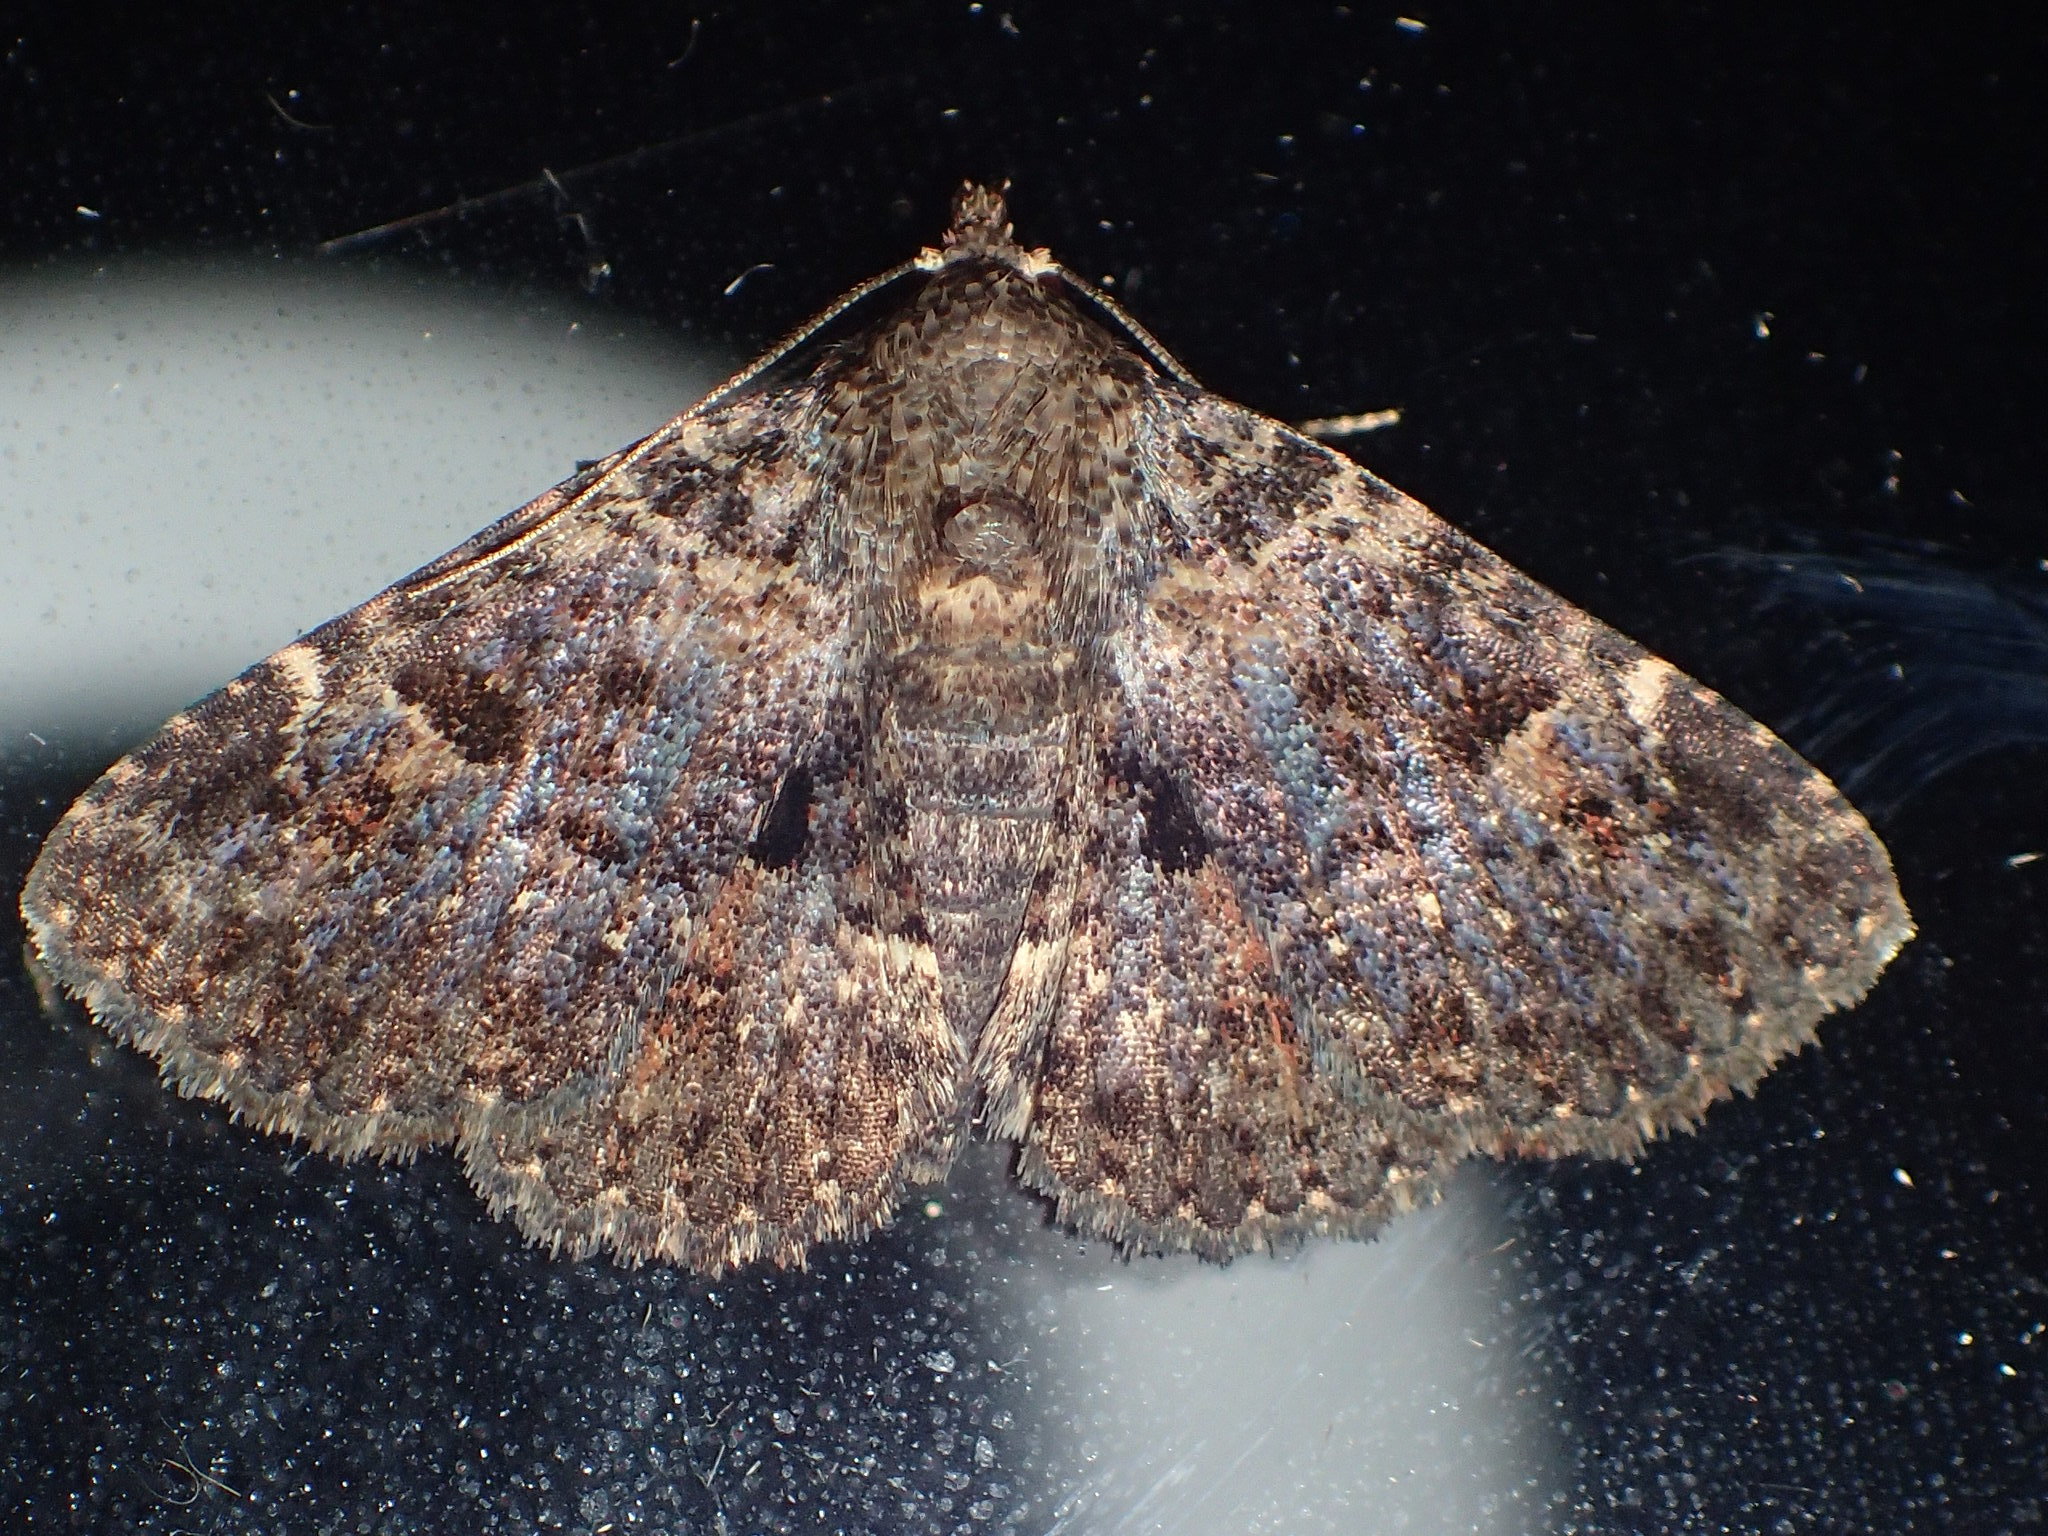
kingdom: Animalia
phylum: Arthropoda
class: Insecta
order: Lepidoptera
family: Erebidae
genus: Metalectra
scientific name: Metalectra discalis
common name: Common fungus moth
